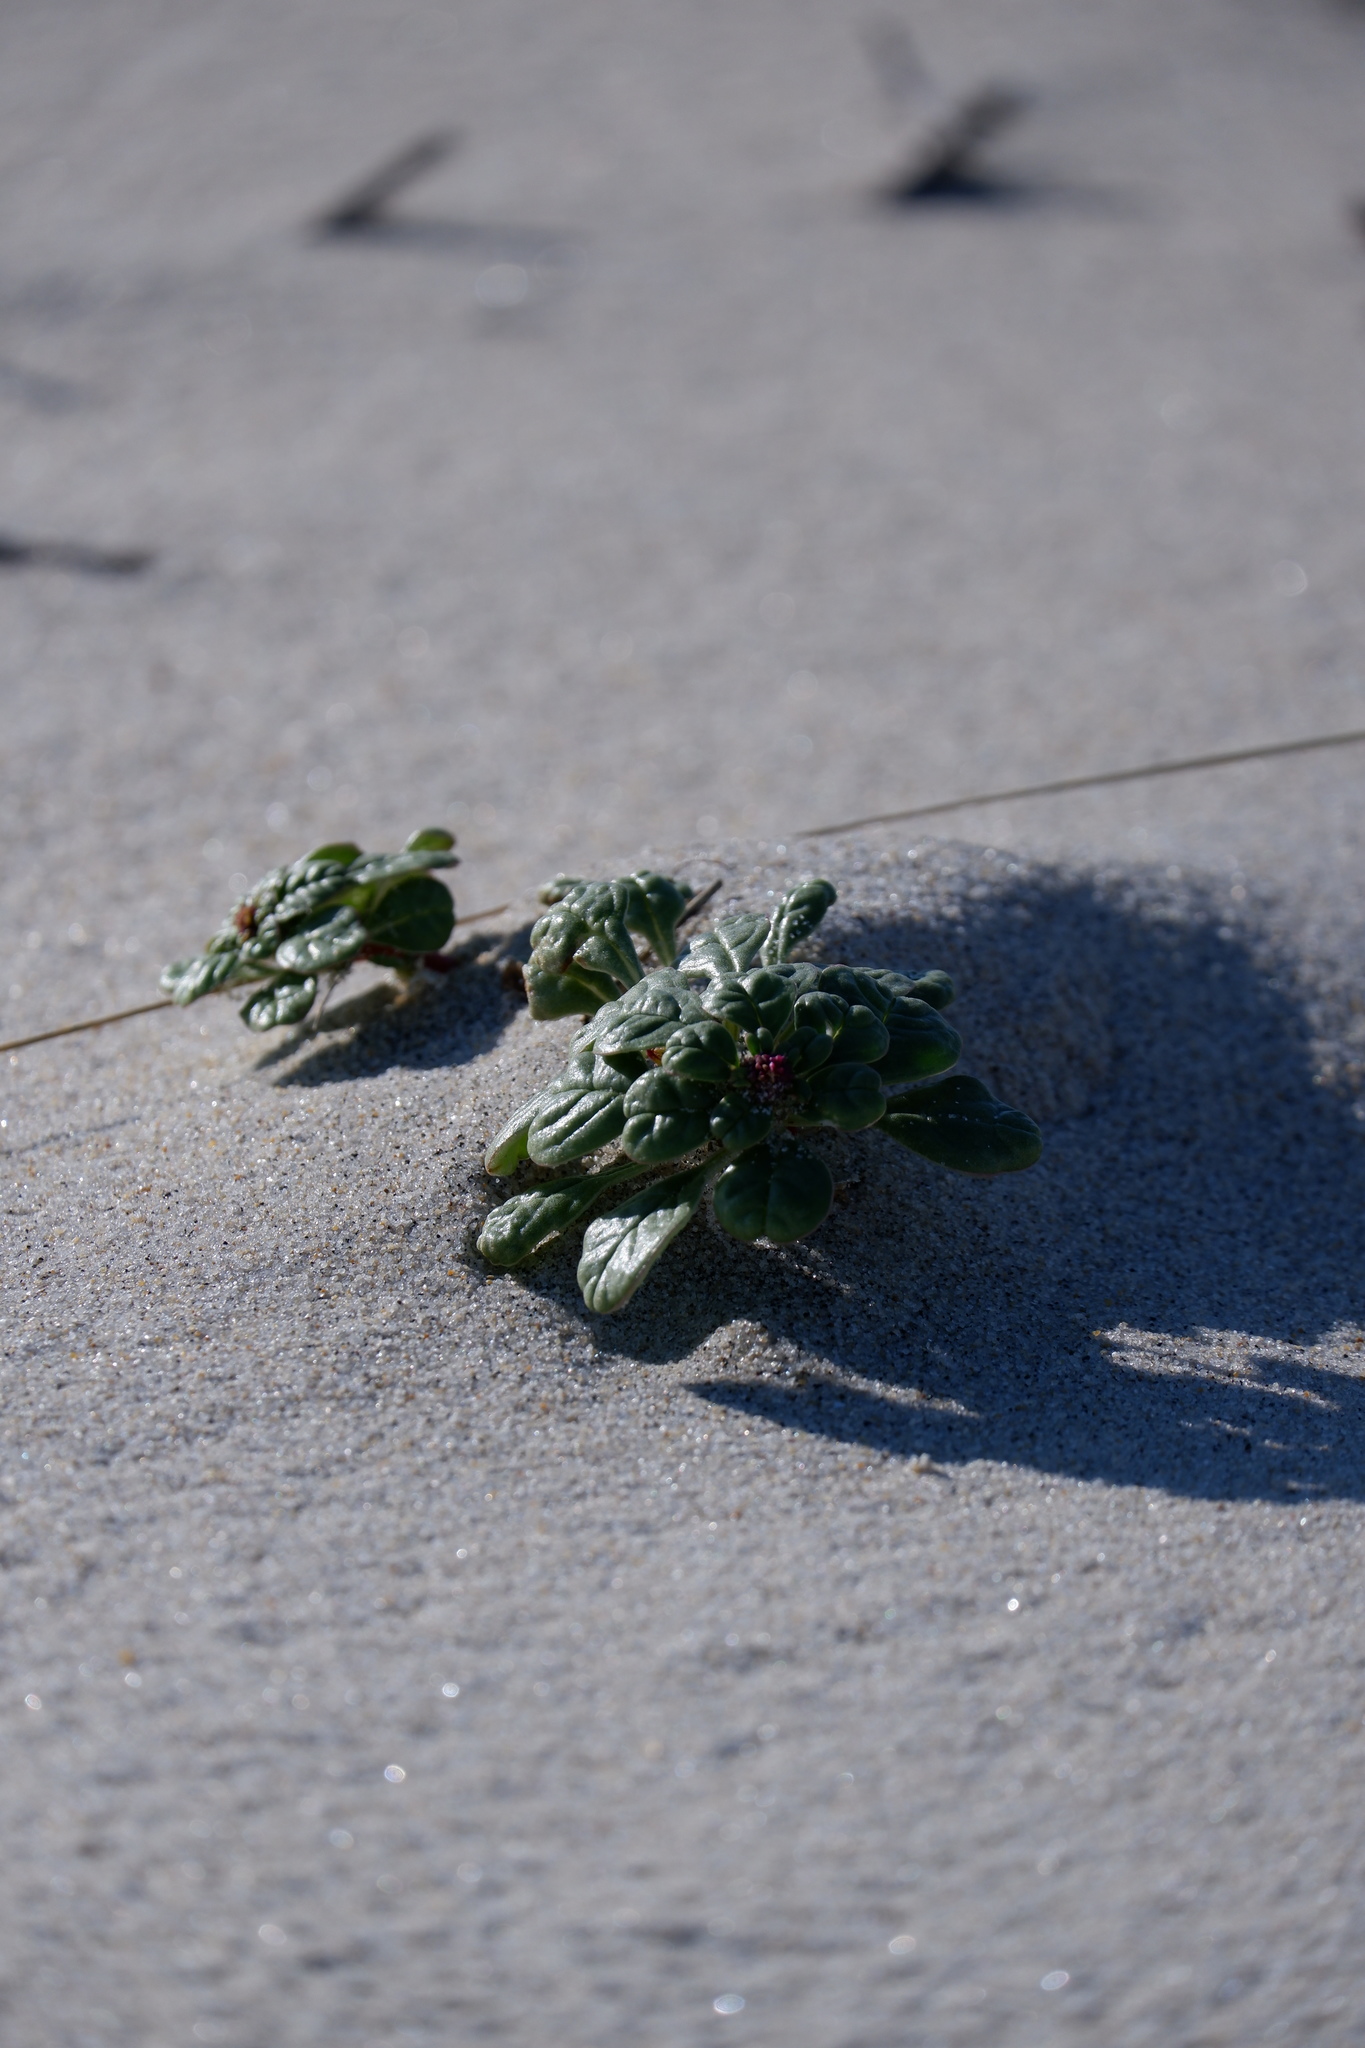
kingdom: Plantae
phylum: Tracheophyta
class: Magnoliopsida
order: Caryophyllales
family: Amaranthaceae
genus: Amaranthus
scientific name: Amaranthus pumilus
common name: Coast amaranth
